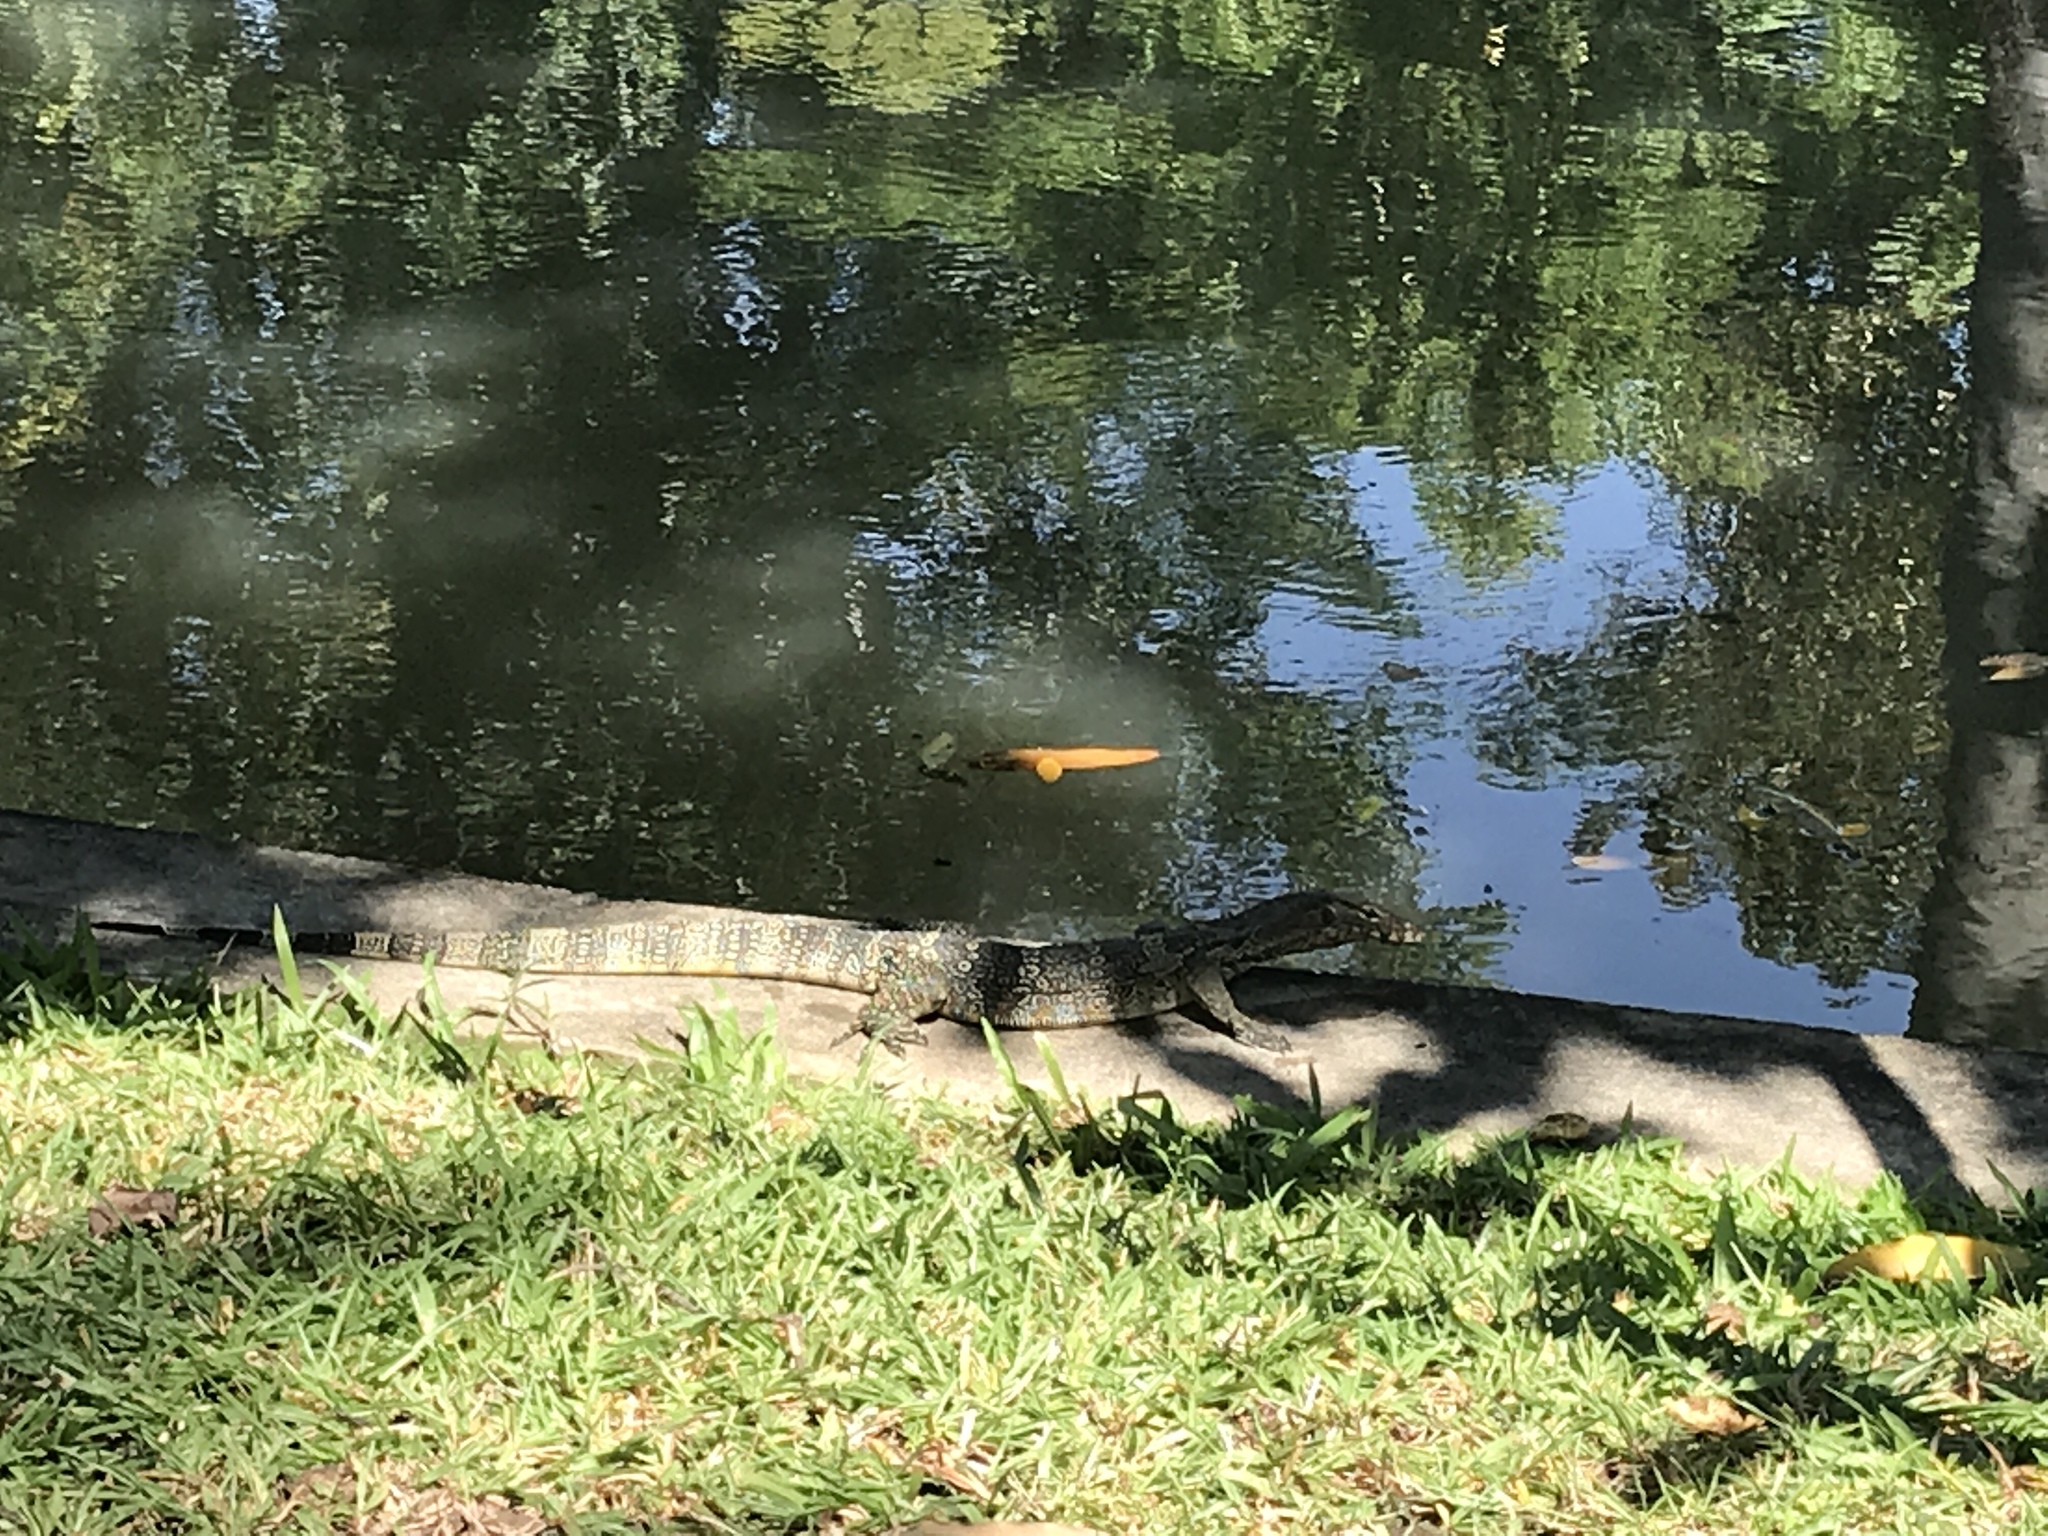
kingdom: Animalia
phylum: Chordata
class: Squamata
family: Varanidae
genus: Varanus
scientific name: Varanus salvator
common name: Common water monitor
